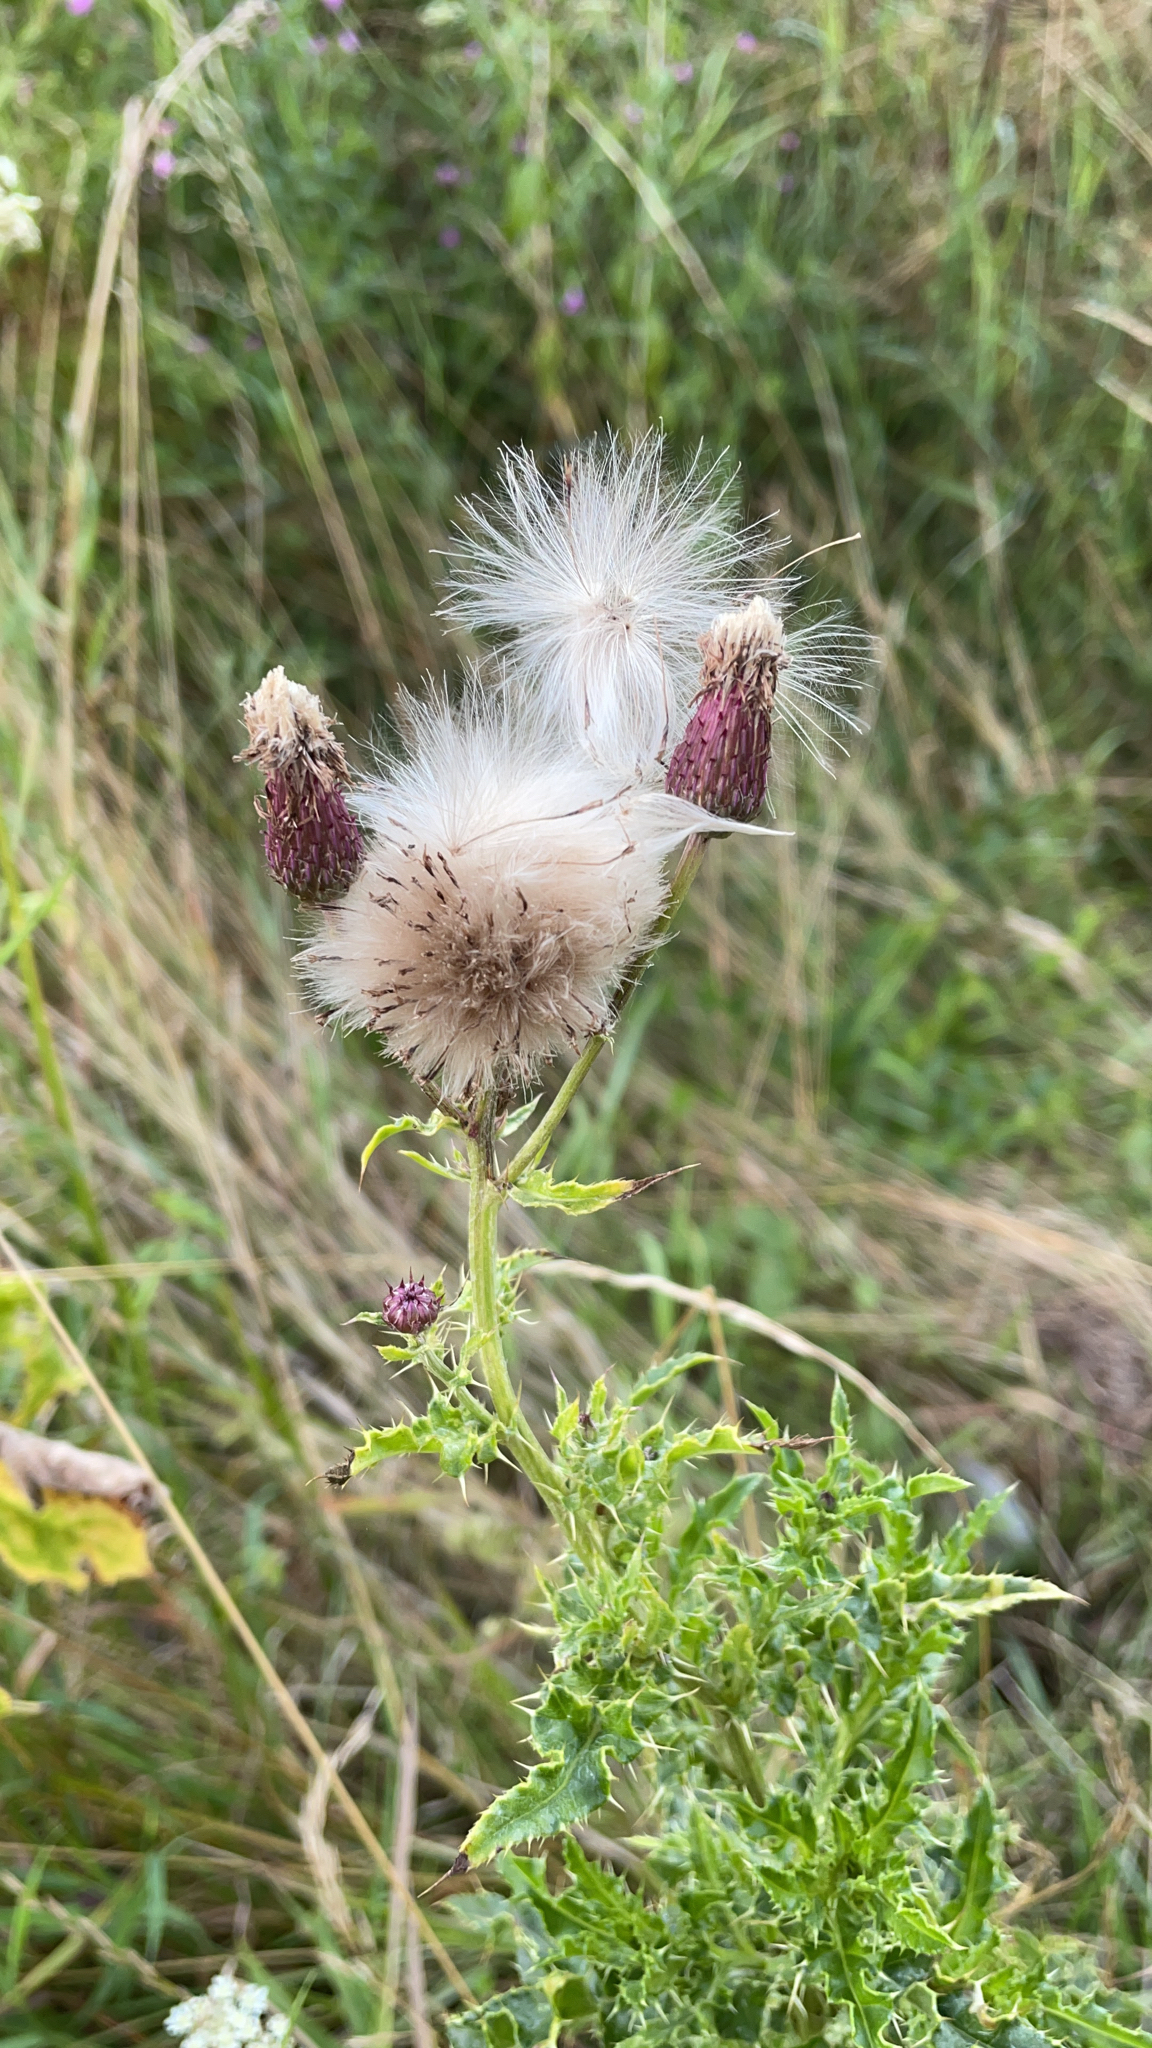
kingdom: Plantae
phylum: Tracheophyta
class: Magnoliopsida
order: Asterales
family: Asteraceae
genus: Cirsium
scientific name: Cirsium arvense
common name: Creeping thistle
